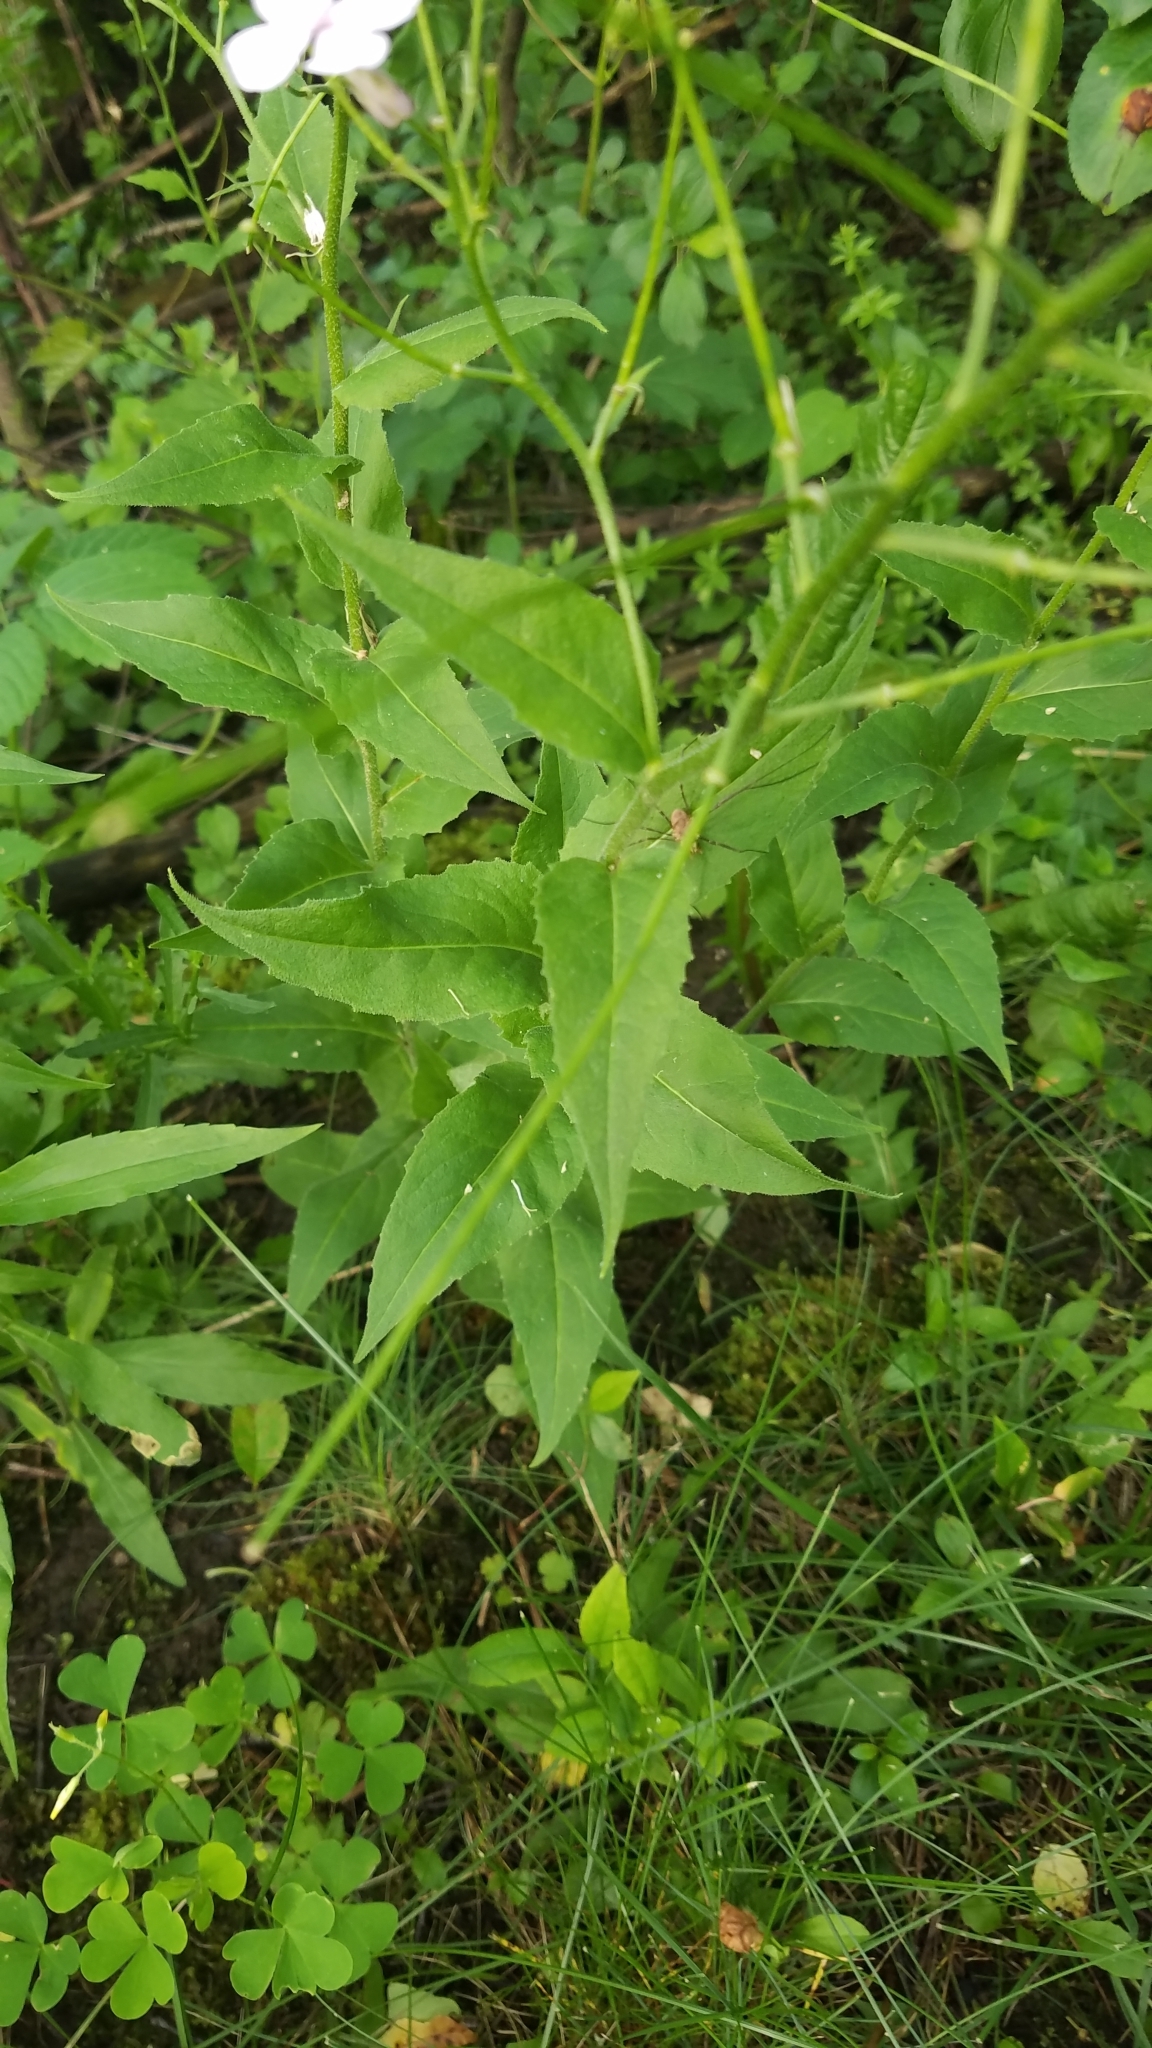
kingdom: Plantae
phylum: Tracheophyta
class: Magnoliopsida
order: Brassicales
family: Brassicaceae
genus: Hesperis
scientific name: Hesperis matronalis
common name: Dame's-violet
